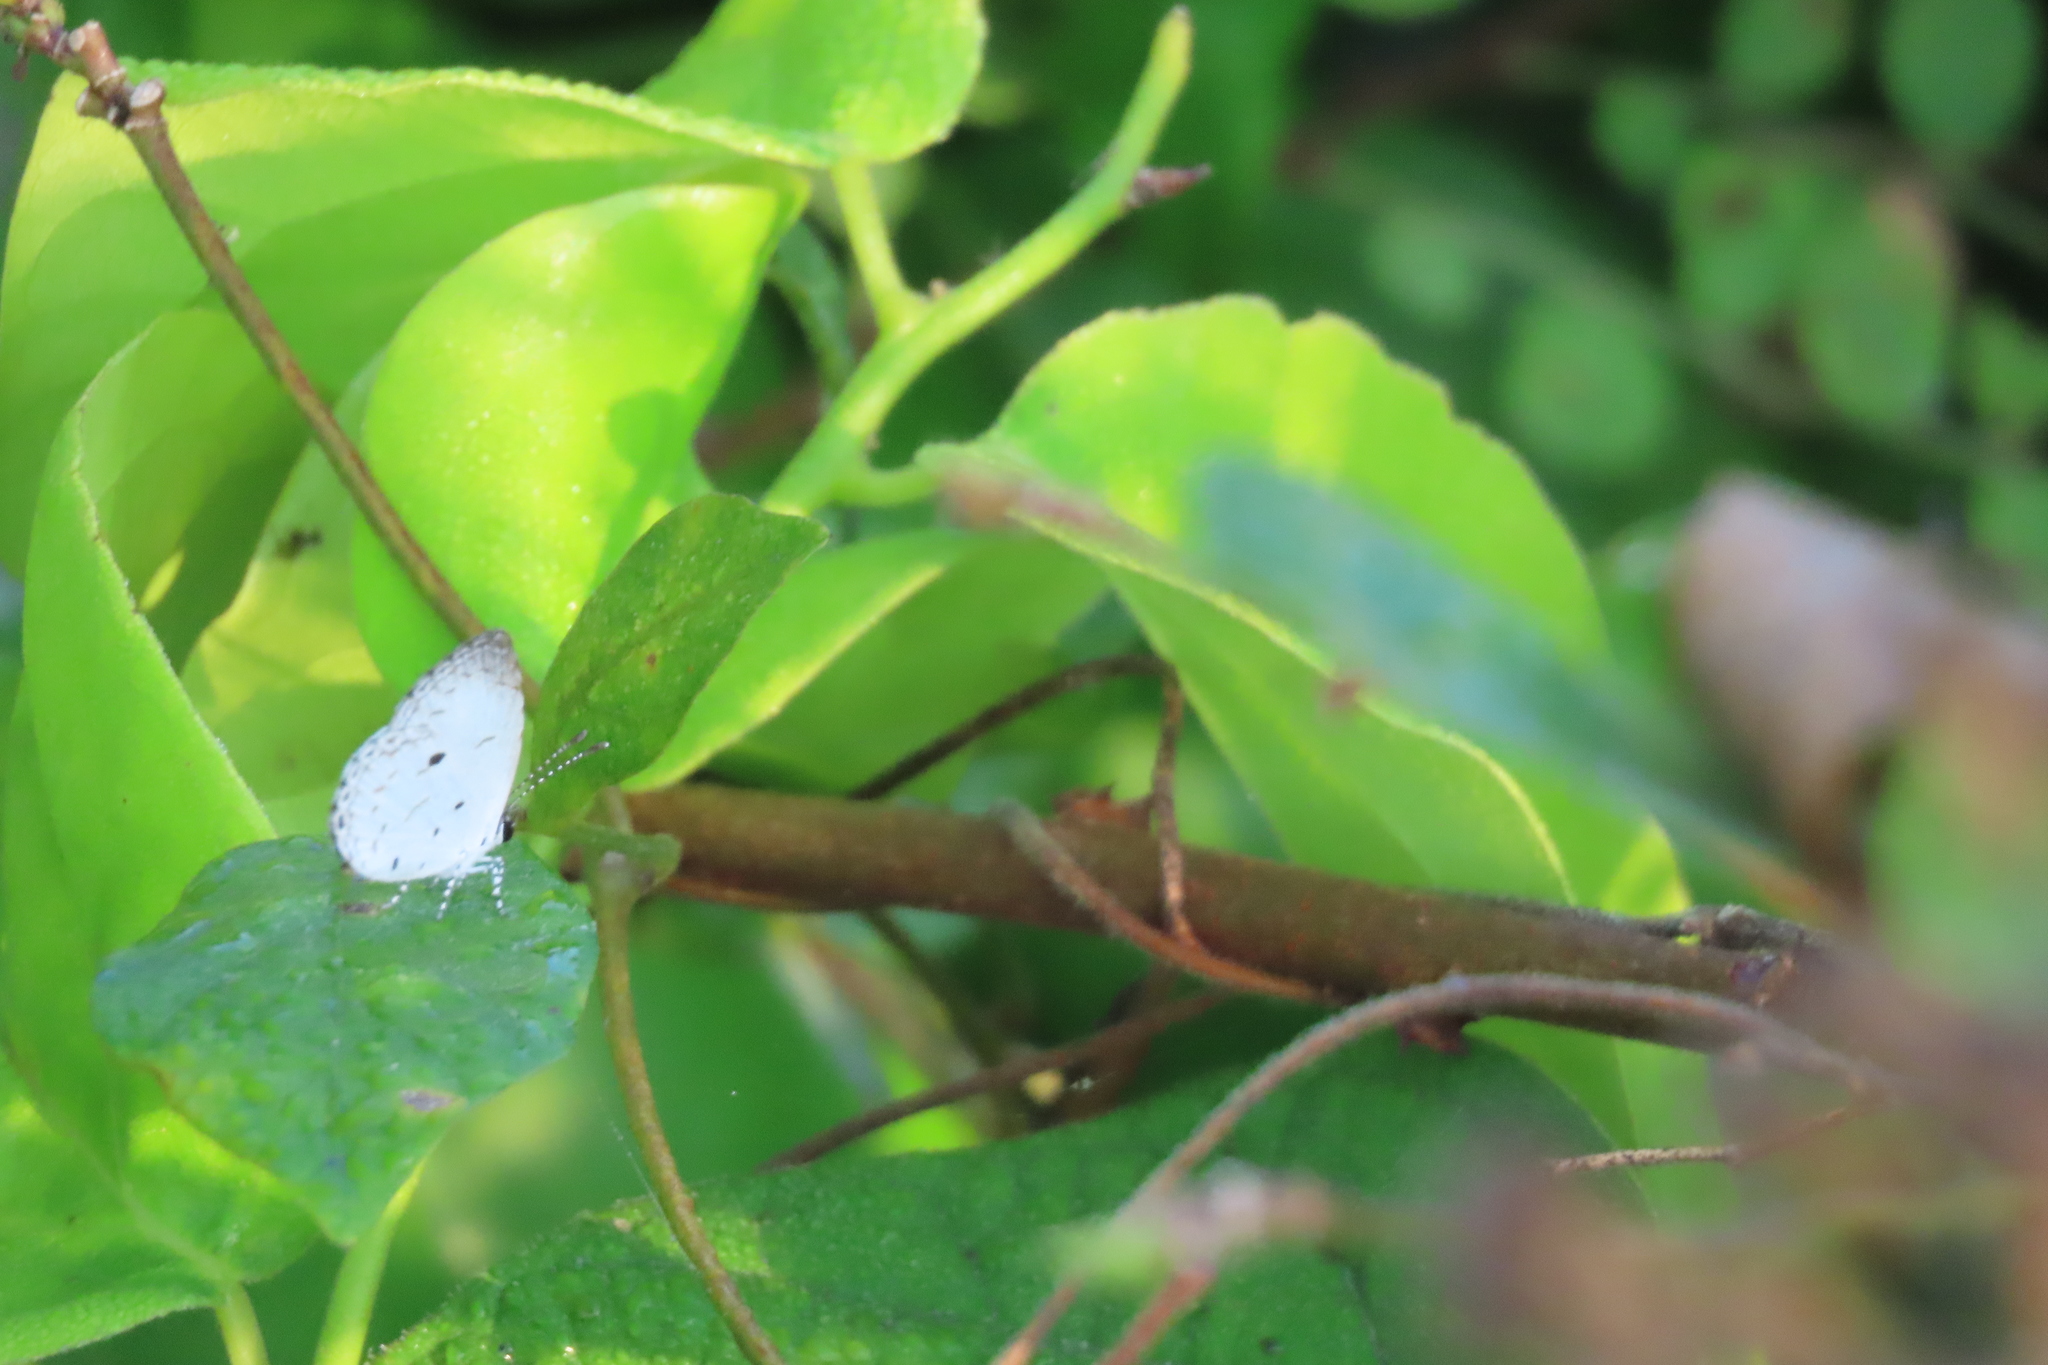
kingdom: Animalia
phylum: Arthropoda
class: Insecta
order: Lepidoptera
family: Lycaenidae
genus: Neopithecops
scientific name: Neopithecops zalmora
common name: Quaker
